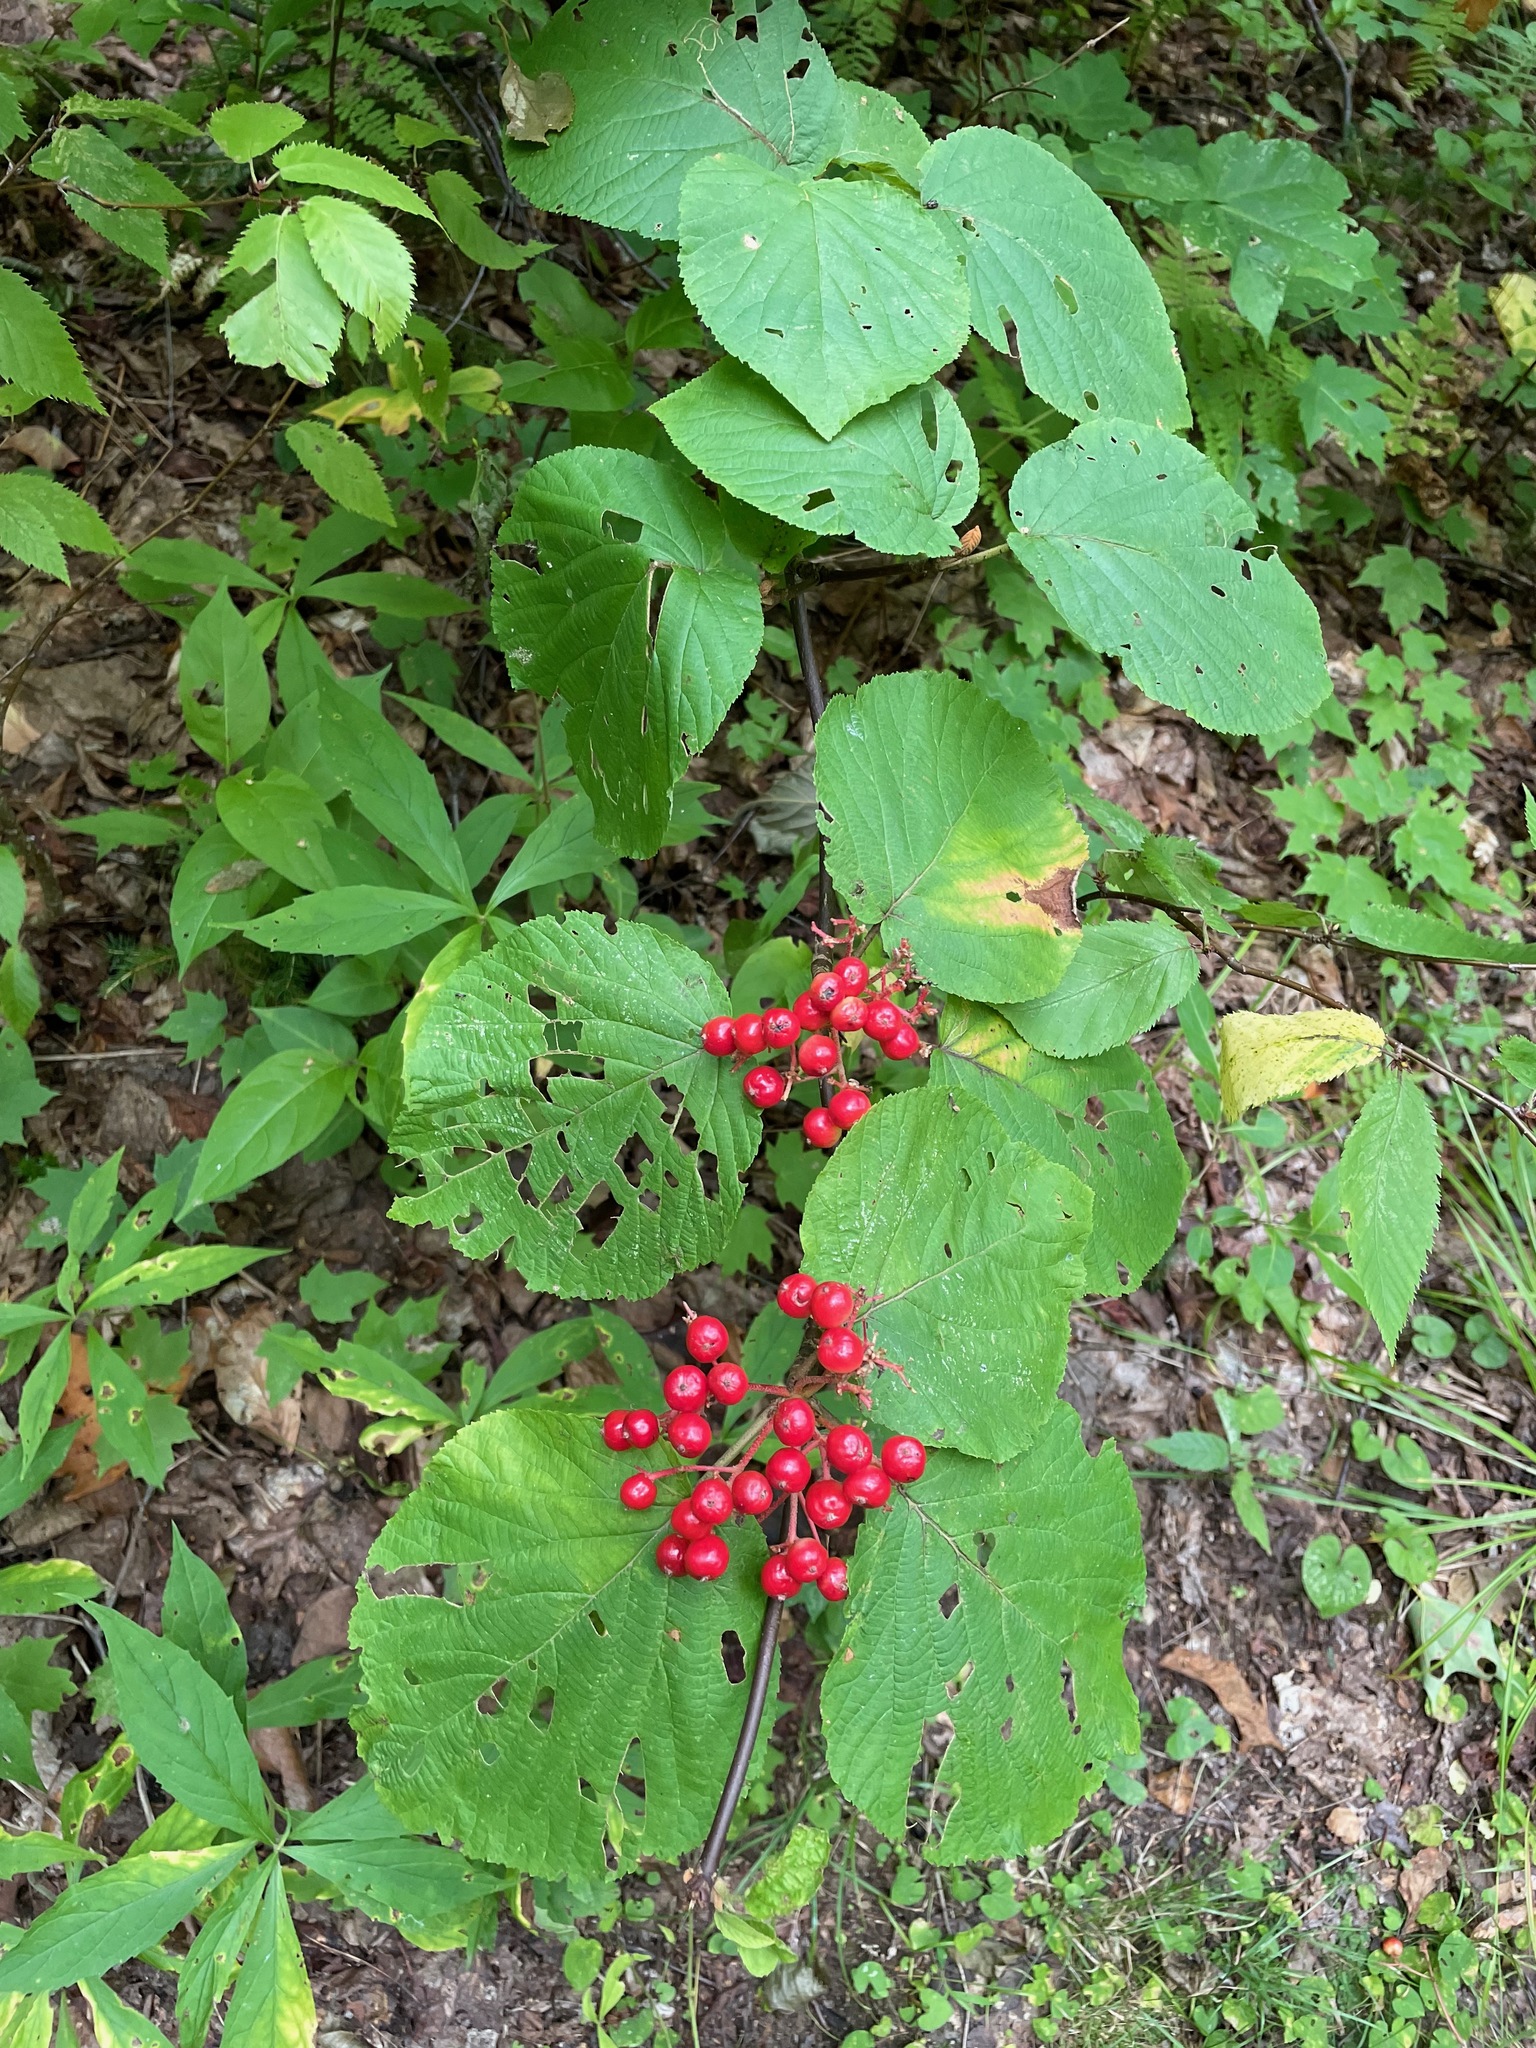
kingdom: Plantae
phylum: Tracheophyta
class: Magnoliopsida
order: Dipsacales
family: Viburnaceae
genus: Viburnum
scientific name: Viburnum lantanoides
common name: Hobblebush
